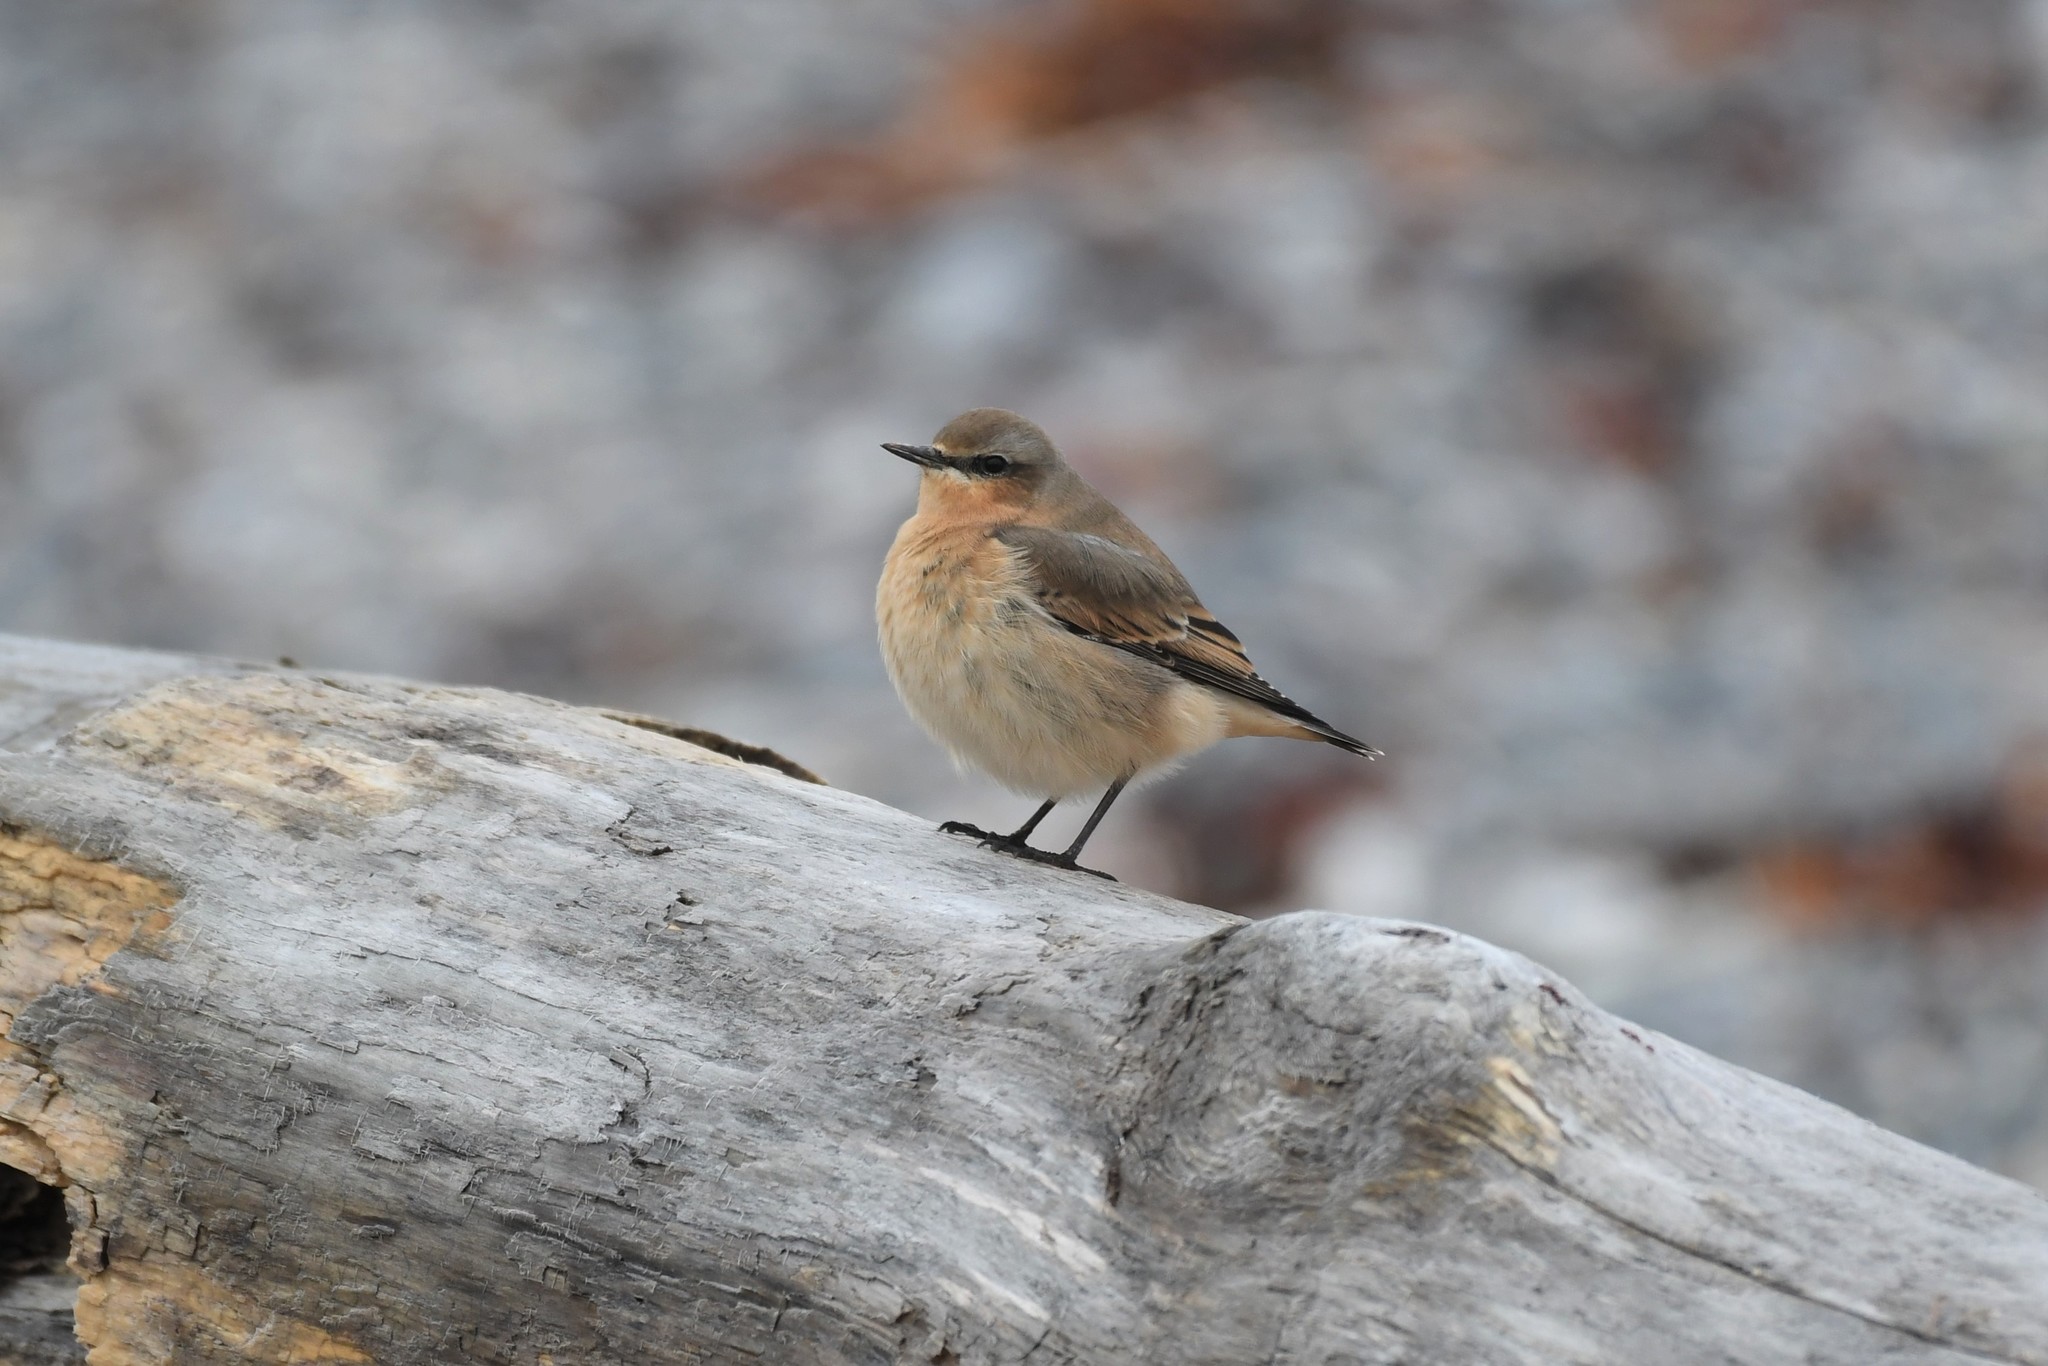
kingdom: Animalia
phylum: Chordata
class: Aves
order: Passeriformes
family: Muscicapidae
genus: Oenanthe
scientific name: Oenanthe oenanthe
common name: Northern wheatear
